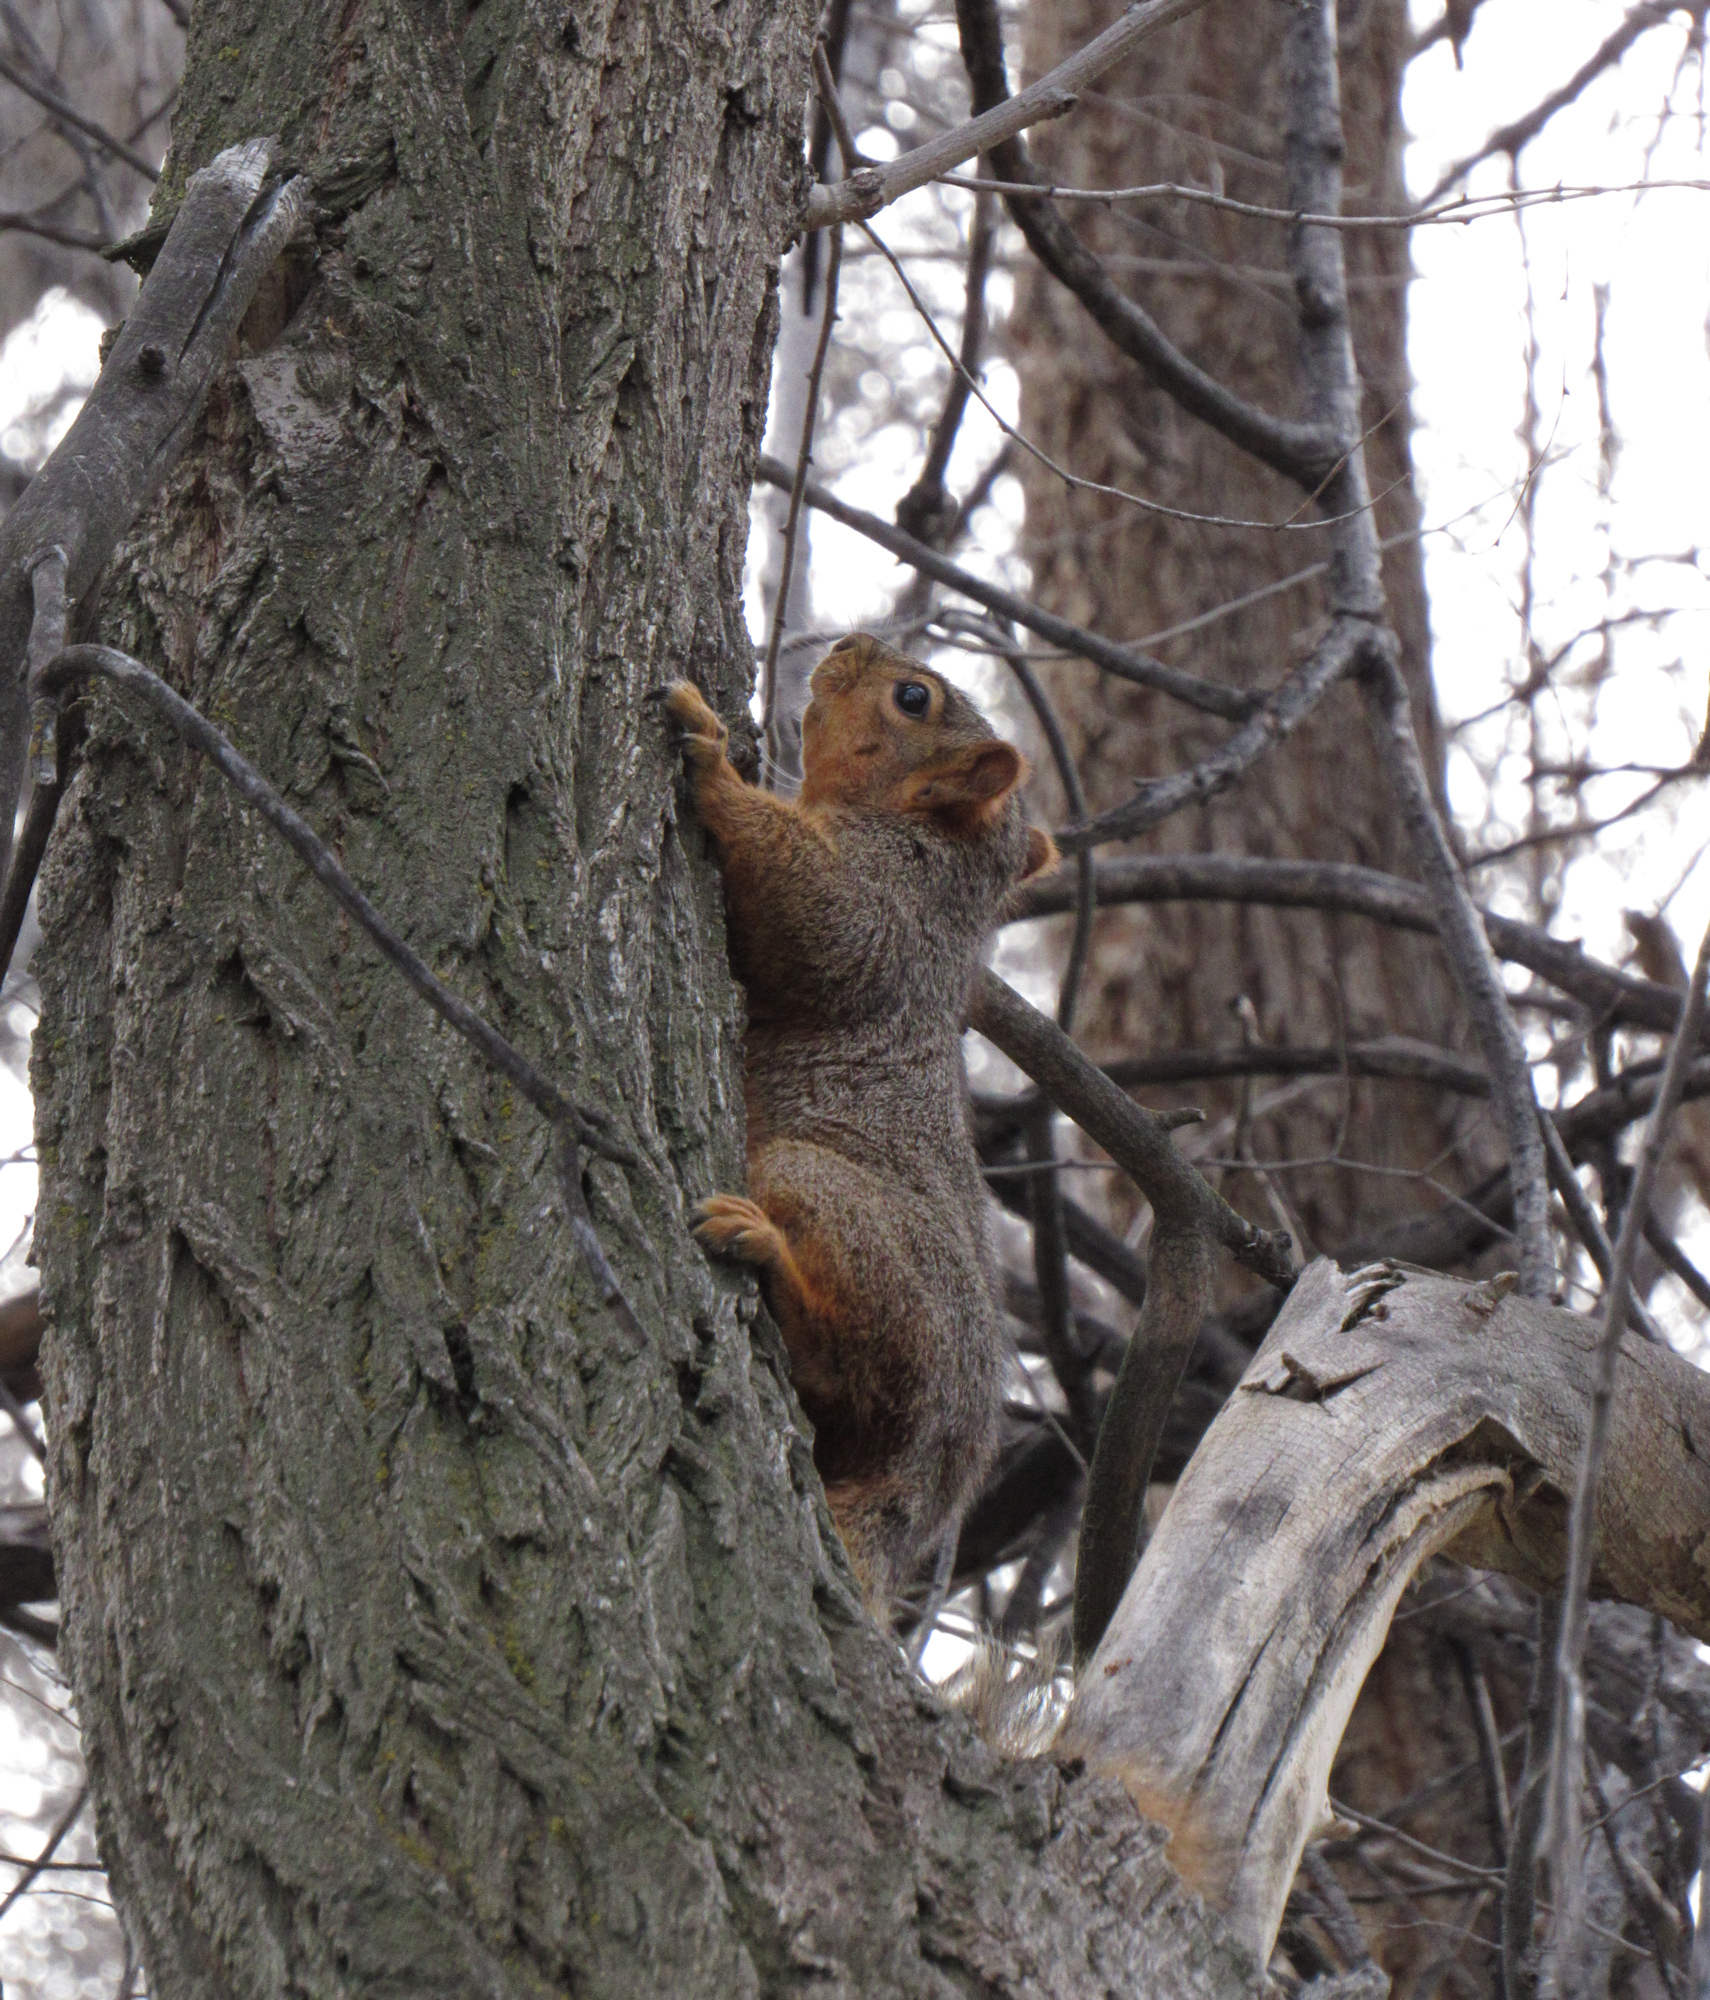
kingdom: Animalia
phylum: Chordata
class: Mammalia
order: Rodentia
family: Sciuridae
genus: Sciurus
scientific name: Sciurus niger
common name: Fox squirrel
